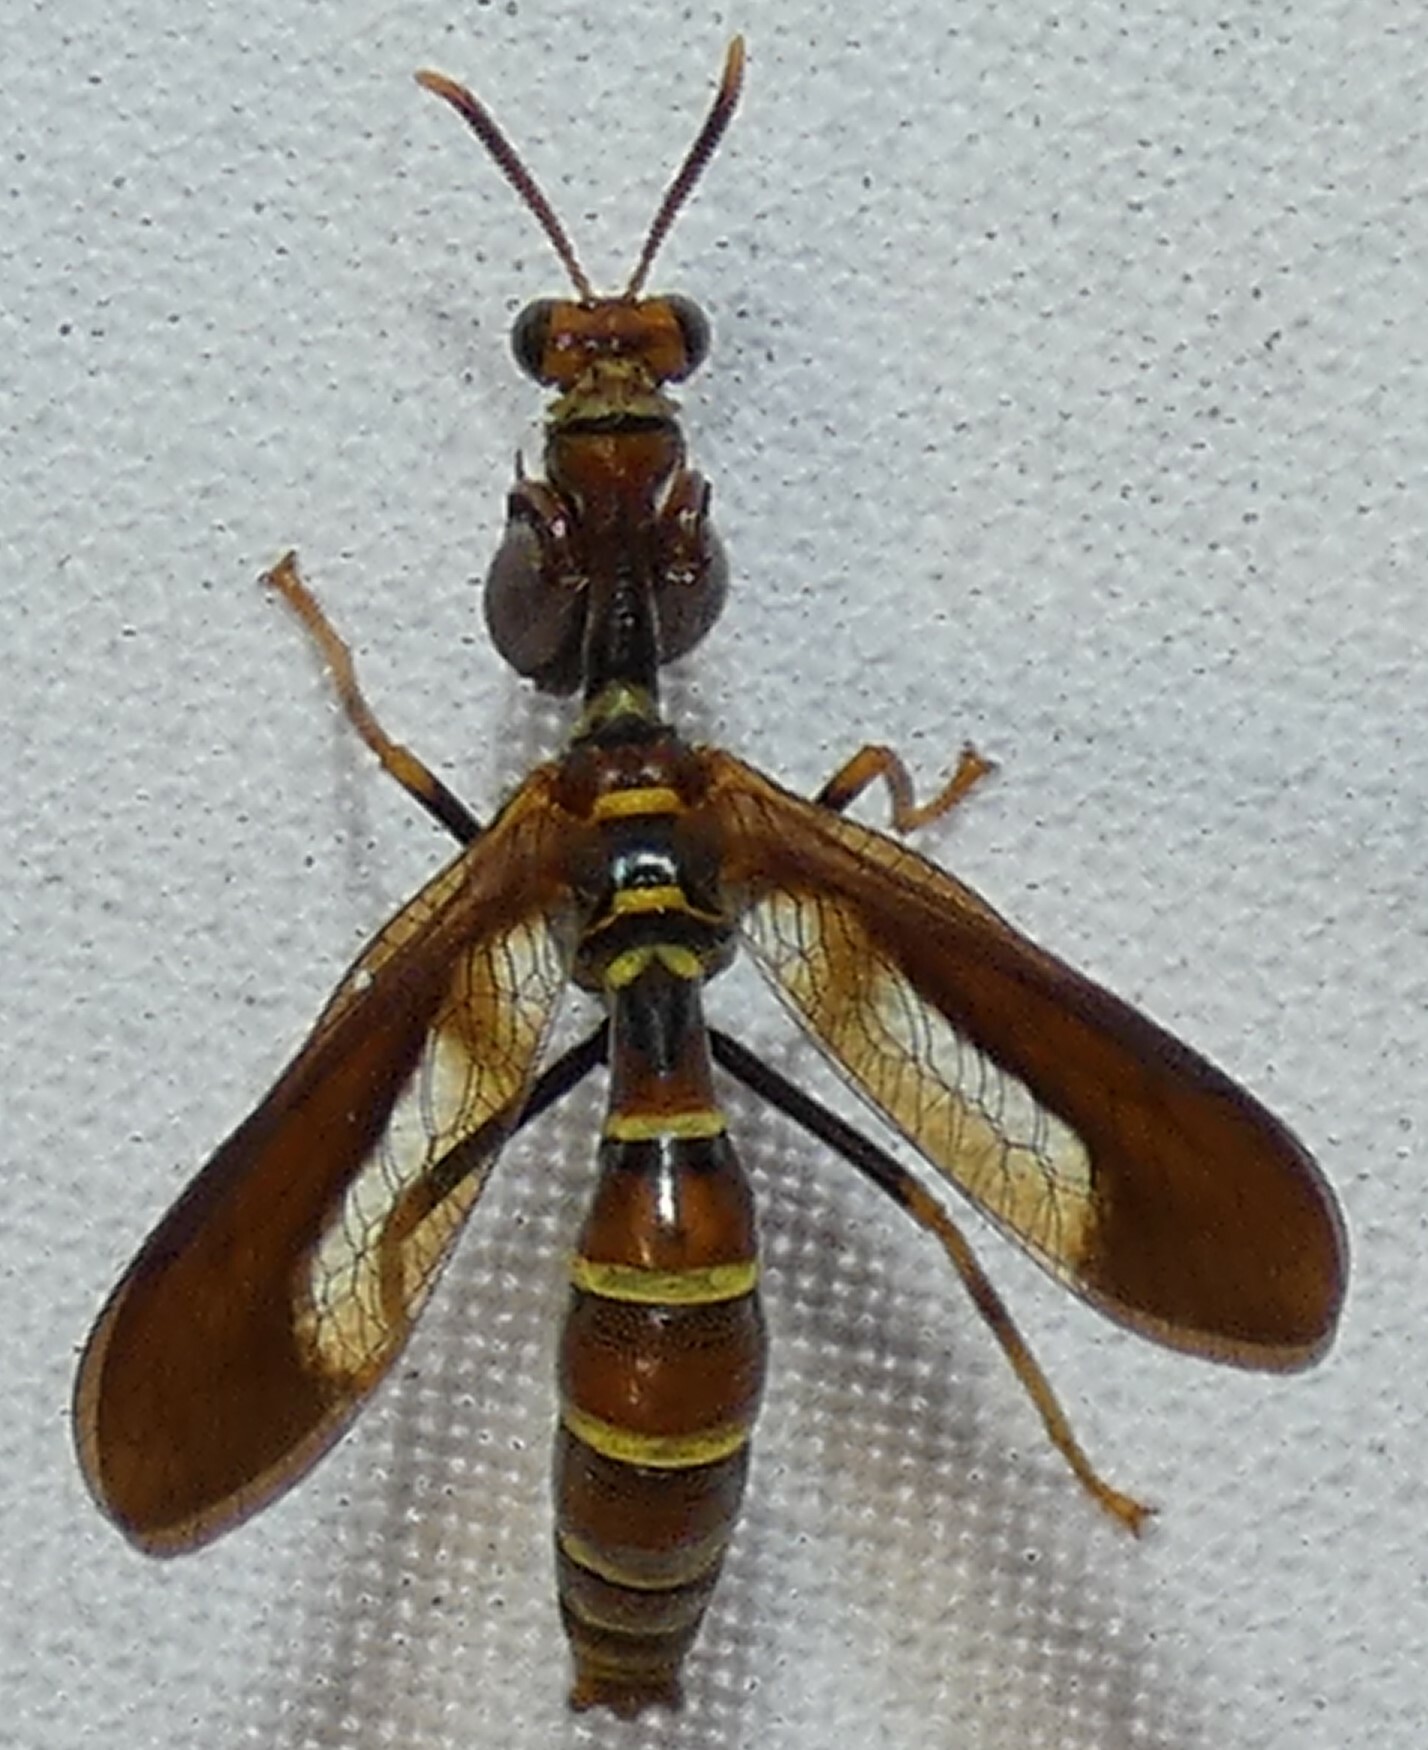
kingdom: Animalia
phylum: Arthropoda
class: Insecta
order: Neuroptera
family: Mantispidae
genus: Climaciella
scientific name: Climaciella brunnea
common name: Brown wasp mantidfly
